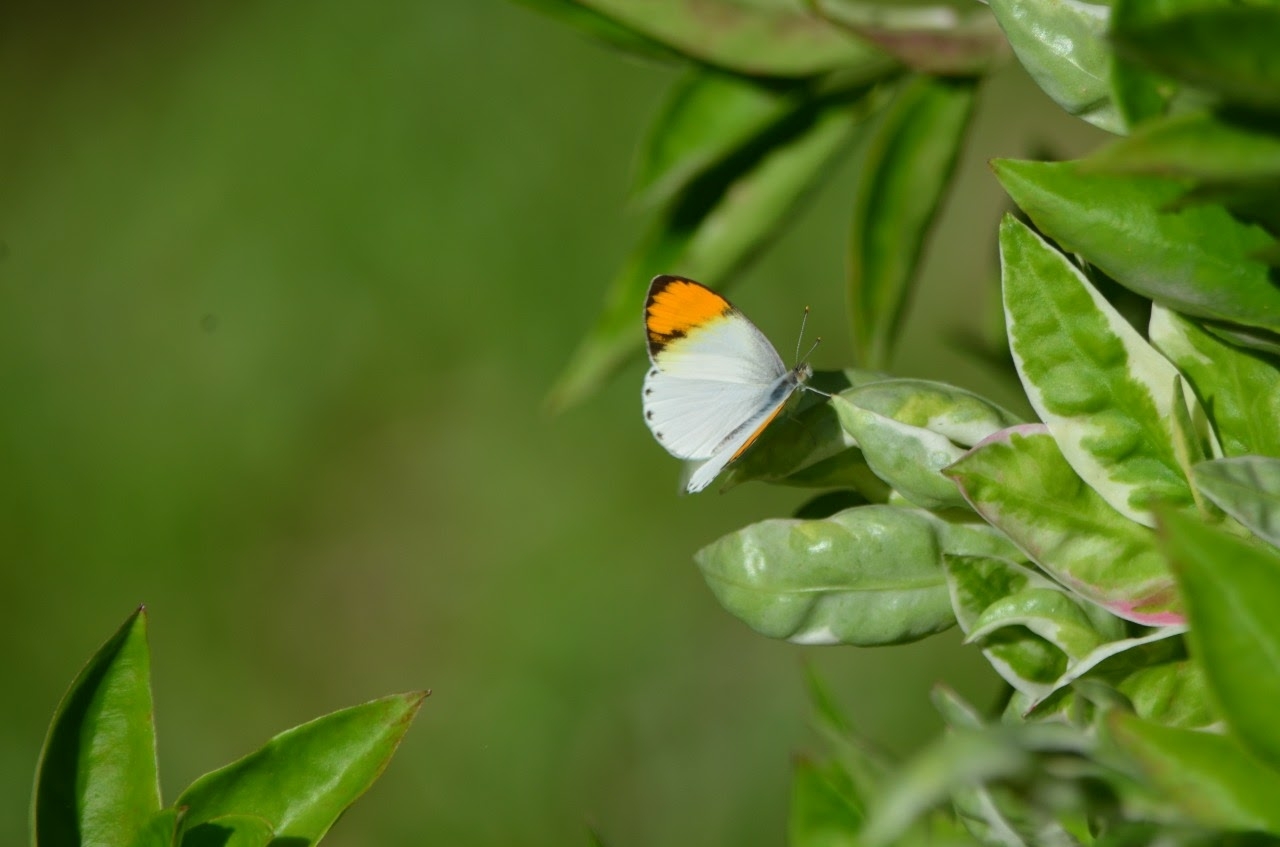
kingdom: Animalia
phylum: Arthropoda
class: Insecta
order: Lepidoptera
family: Pieridae
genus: Colotis
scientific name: Colotis aurora
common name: Plain orange-tip
